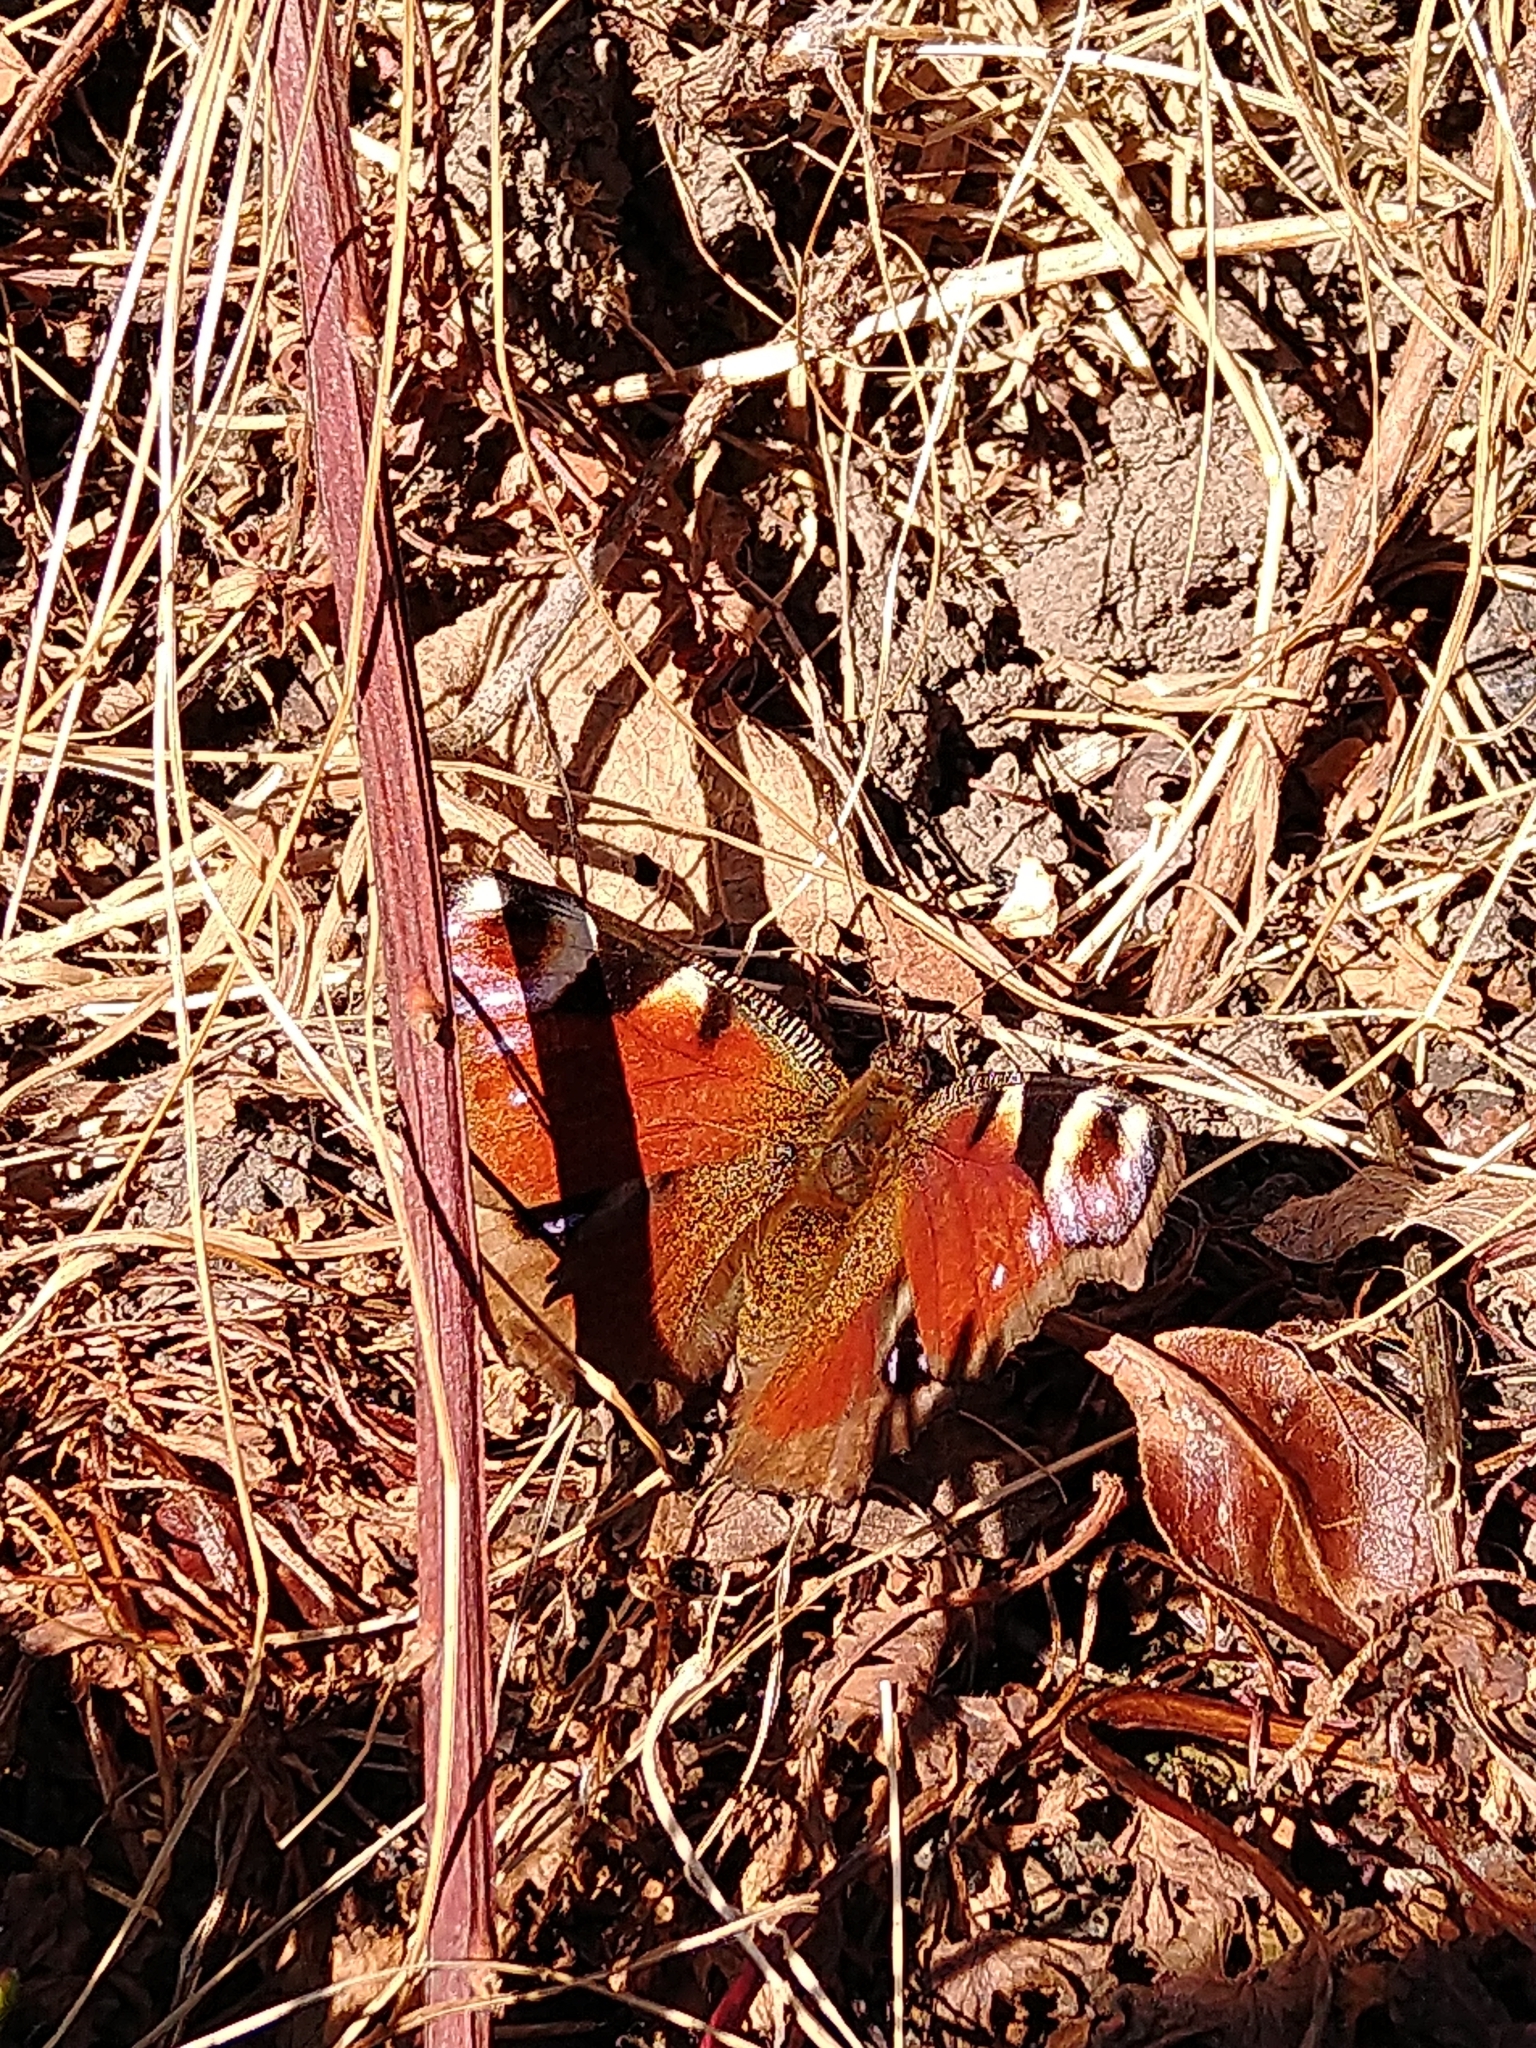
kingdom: Animalia
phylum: Arthropoda
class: Insecta
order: Lepidoptera
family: Nymphalidae
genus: Aglais
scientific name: Aglais io
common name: Peacock
